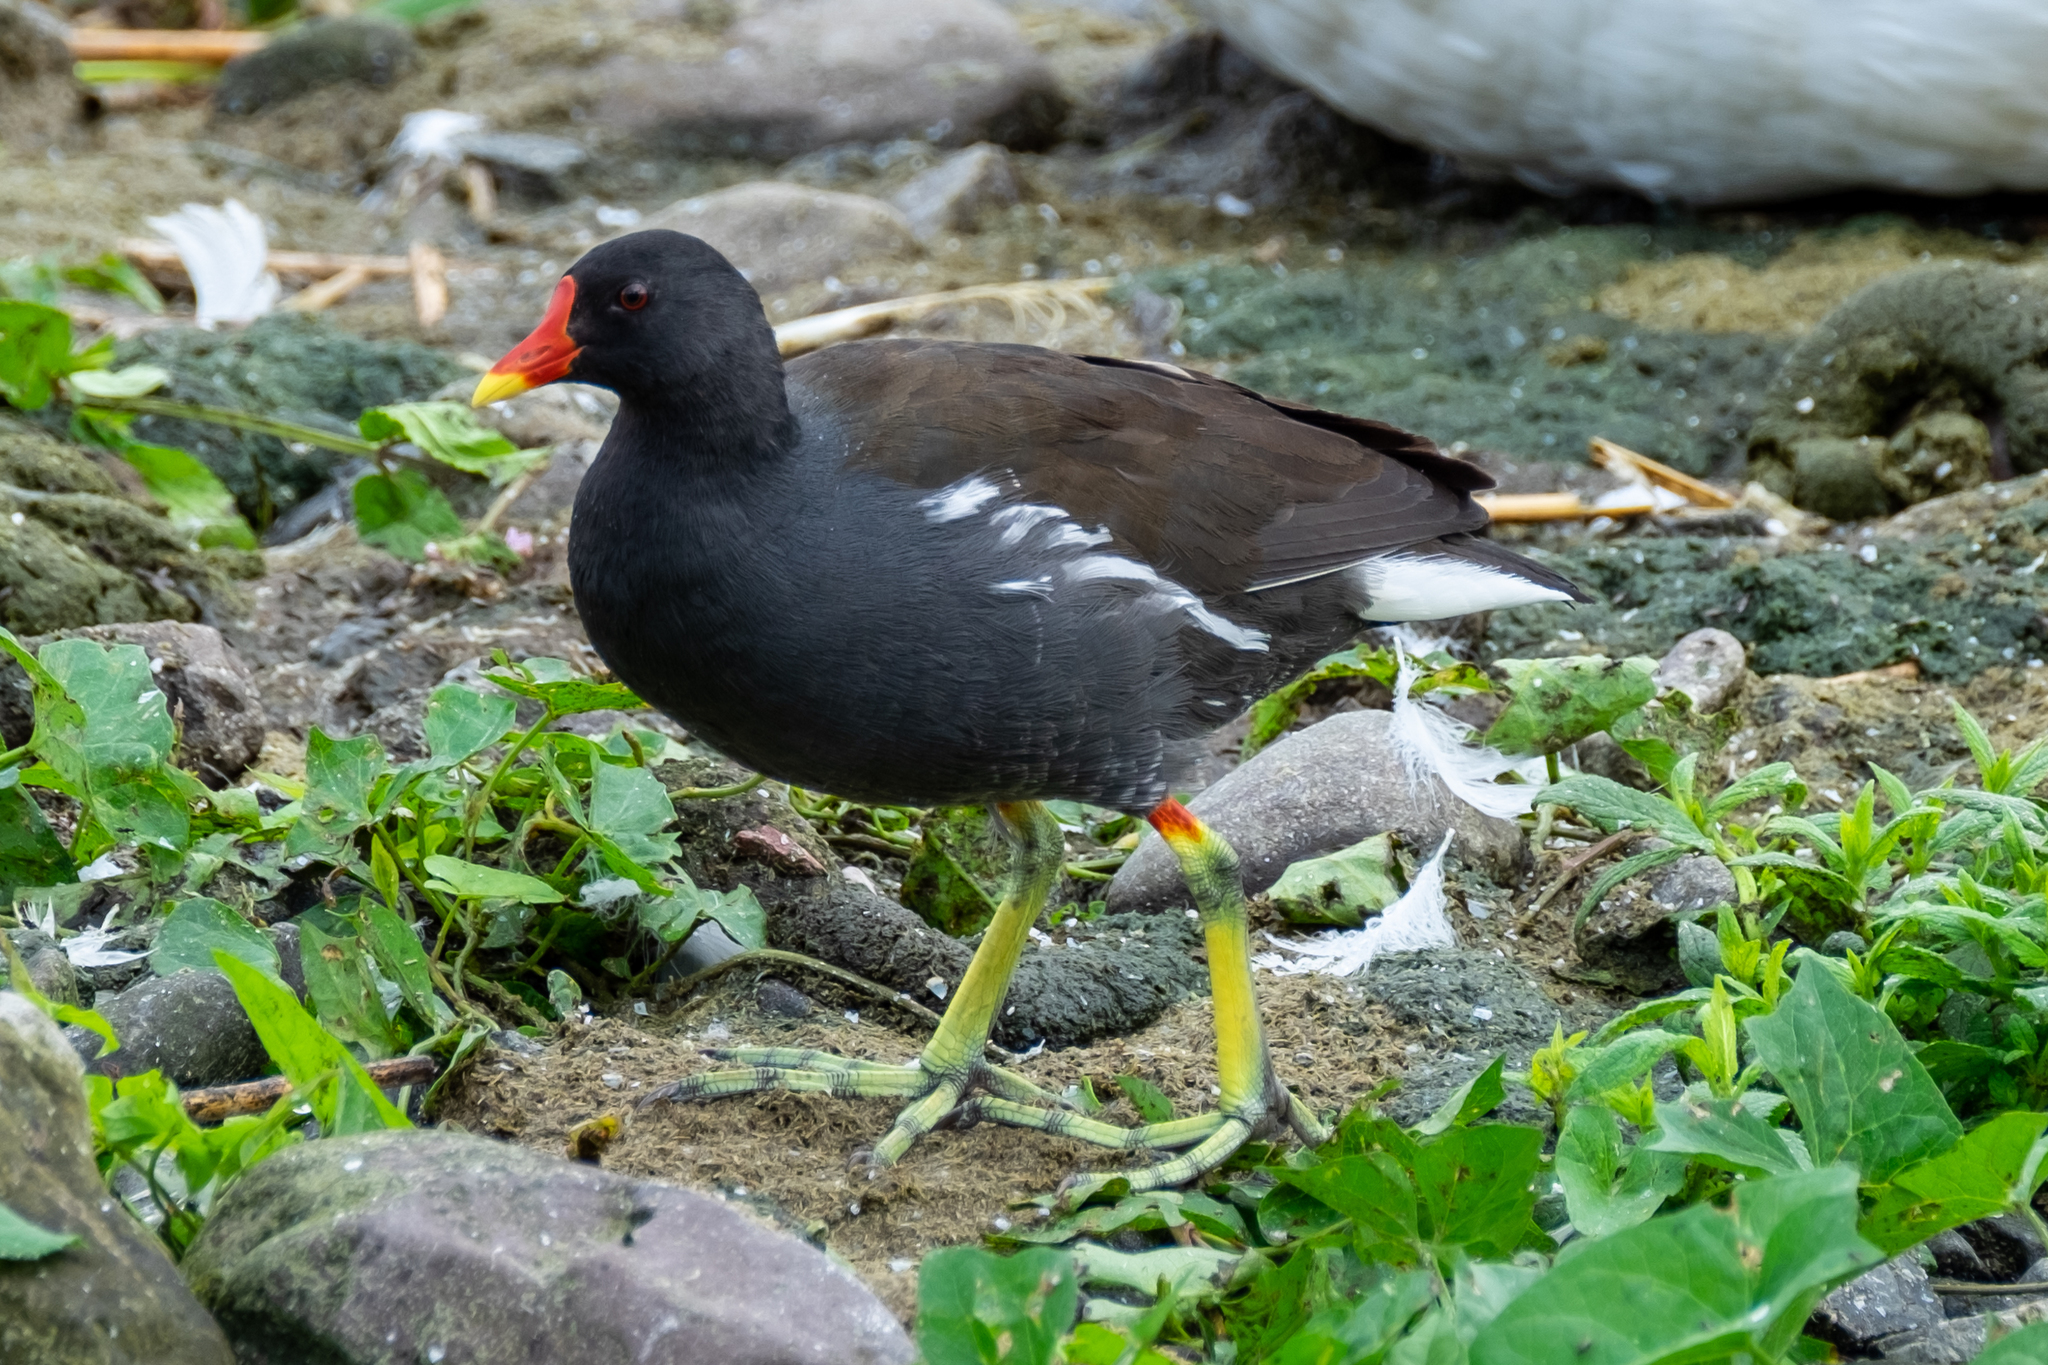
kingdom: Animalia
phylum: Chordata
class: Aves
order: Gruiformes
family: Rallidae
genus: Gallinula
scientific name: Gallinula chloropus
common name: Common moorhen
